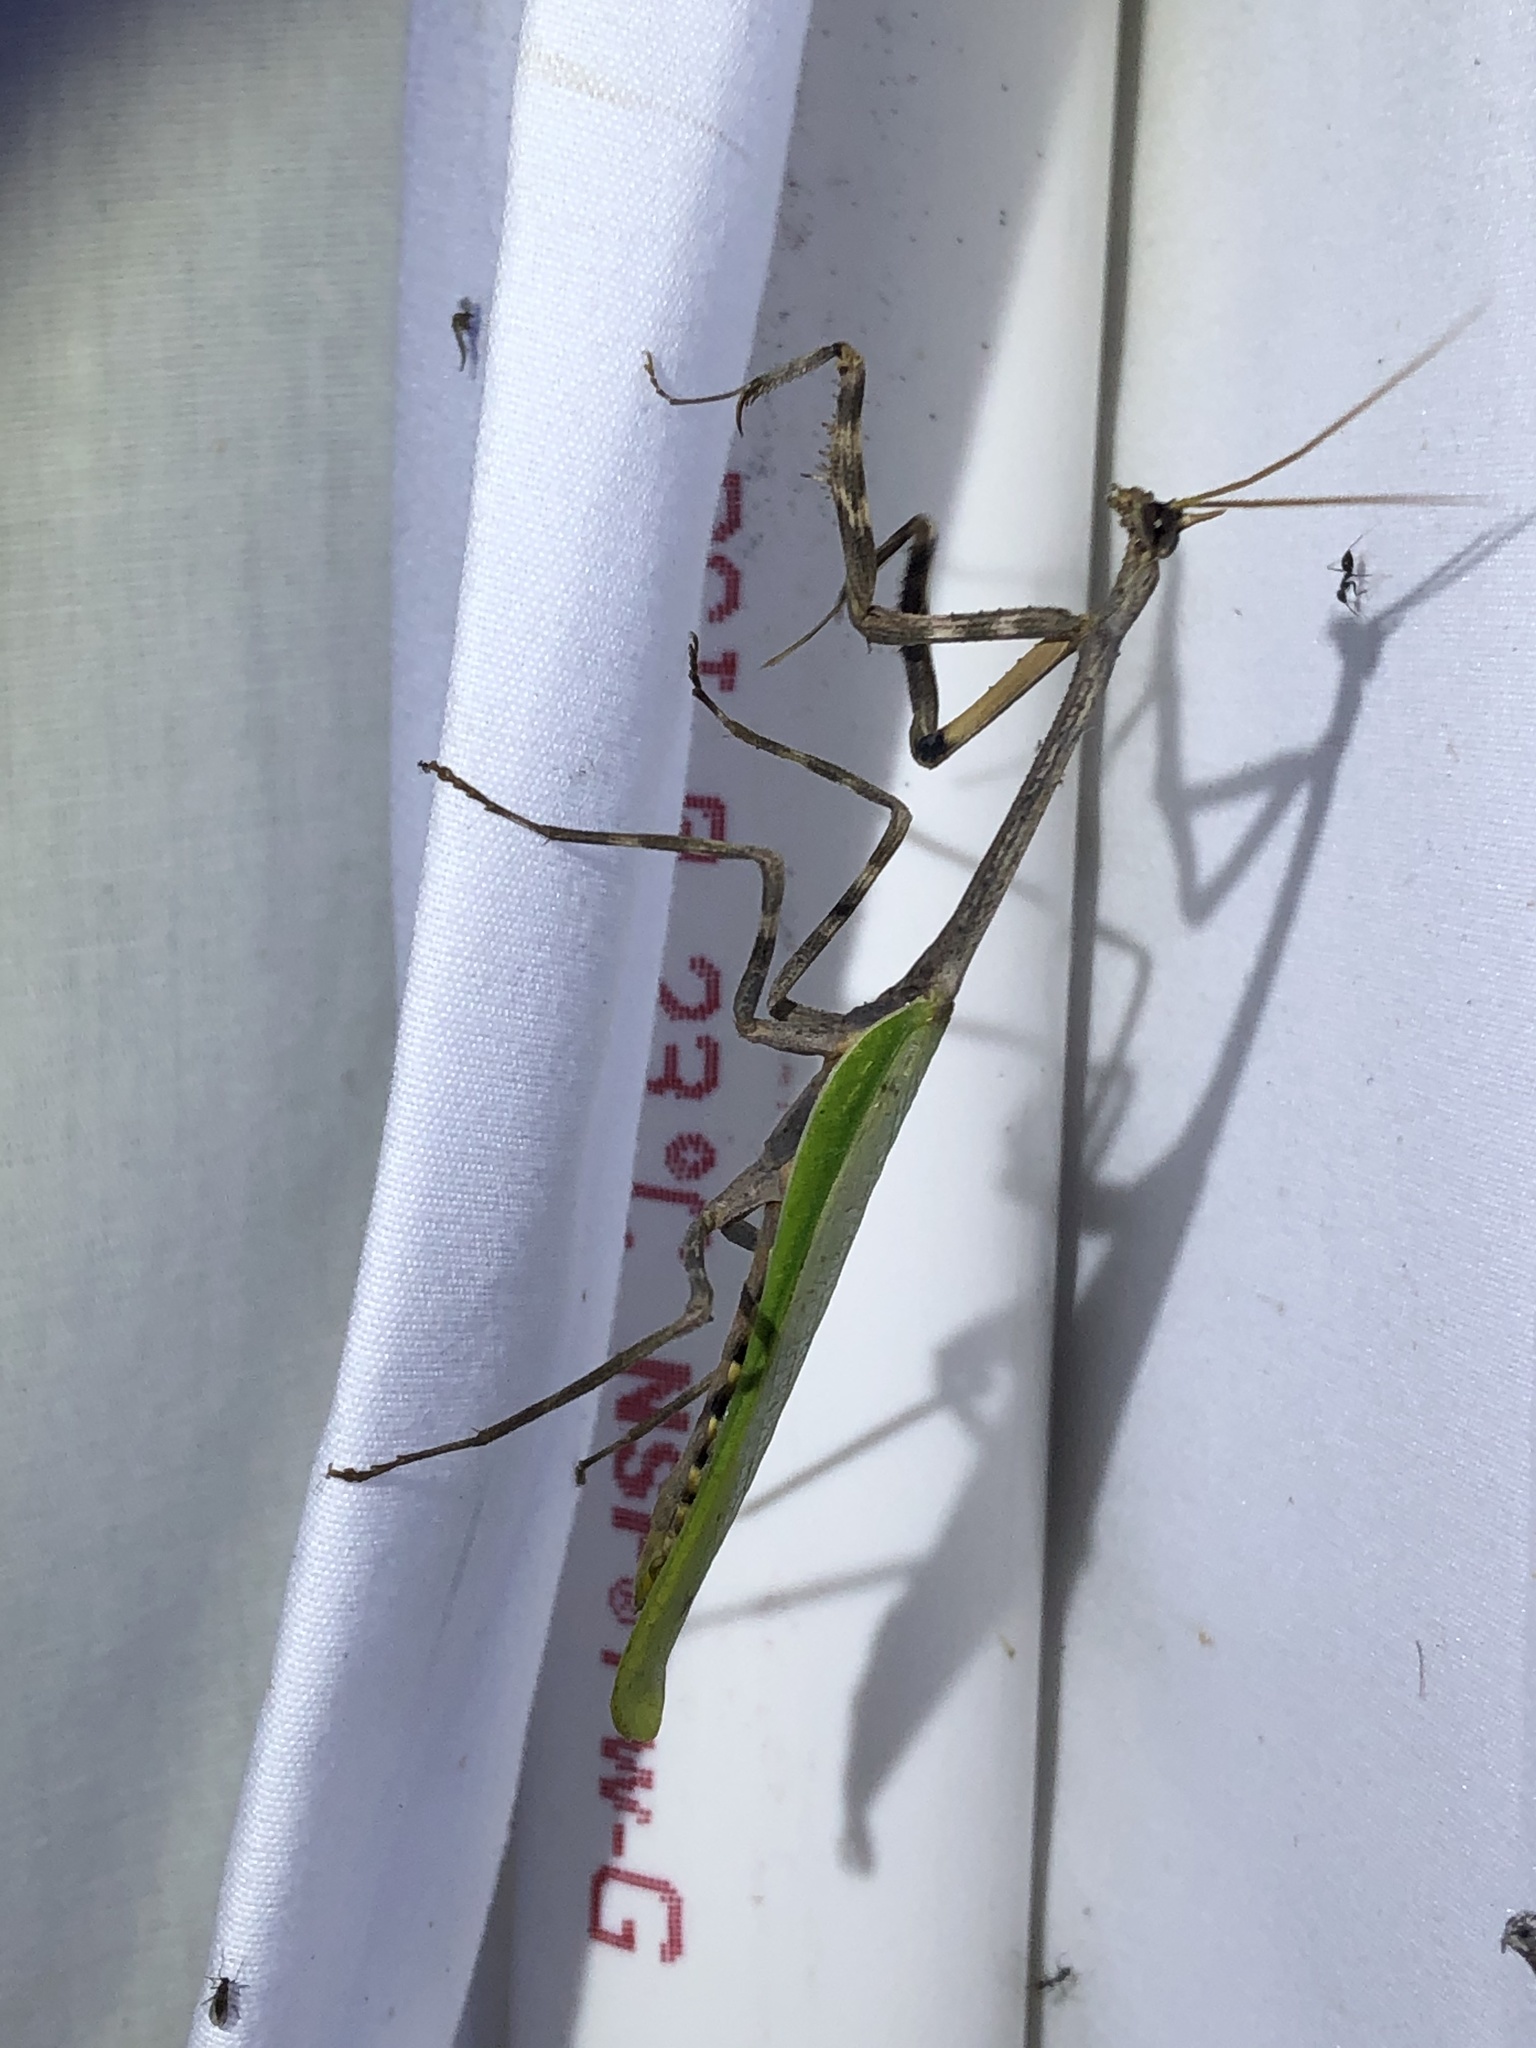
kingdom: Animalia
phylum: Arthropoda
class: Insecta
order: Mantodea
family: Mantidae
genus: Pseudovates
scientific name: Pseudovates chlorophaea
